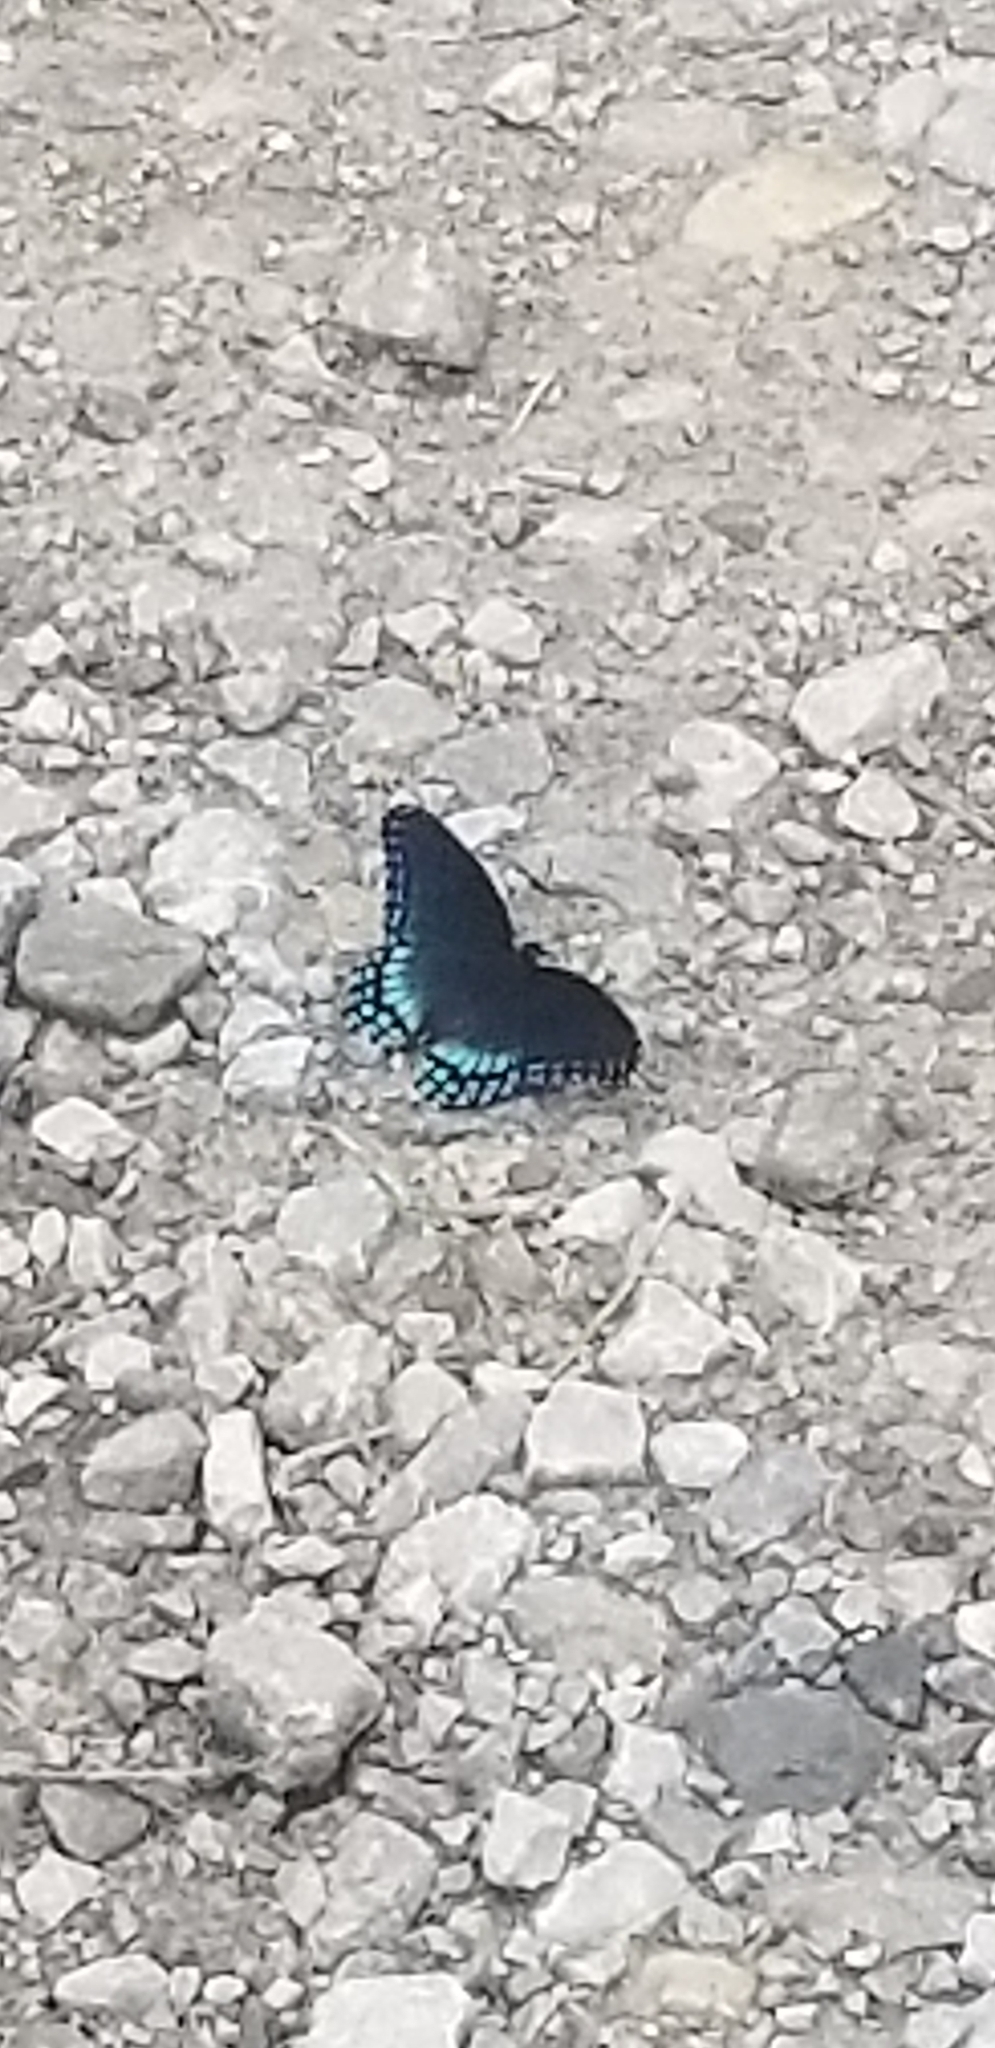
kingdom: Animalia
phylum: Arthropoda
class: Insecta
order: Lepidoptera
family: Nymphalidae
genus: Limenitis
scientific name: Limenitis astyanax
